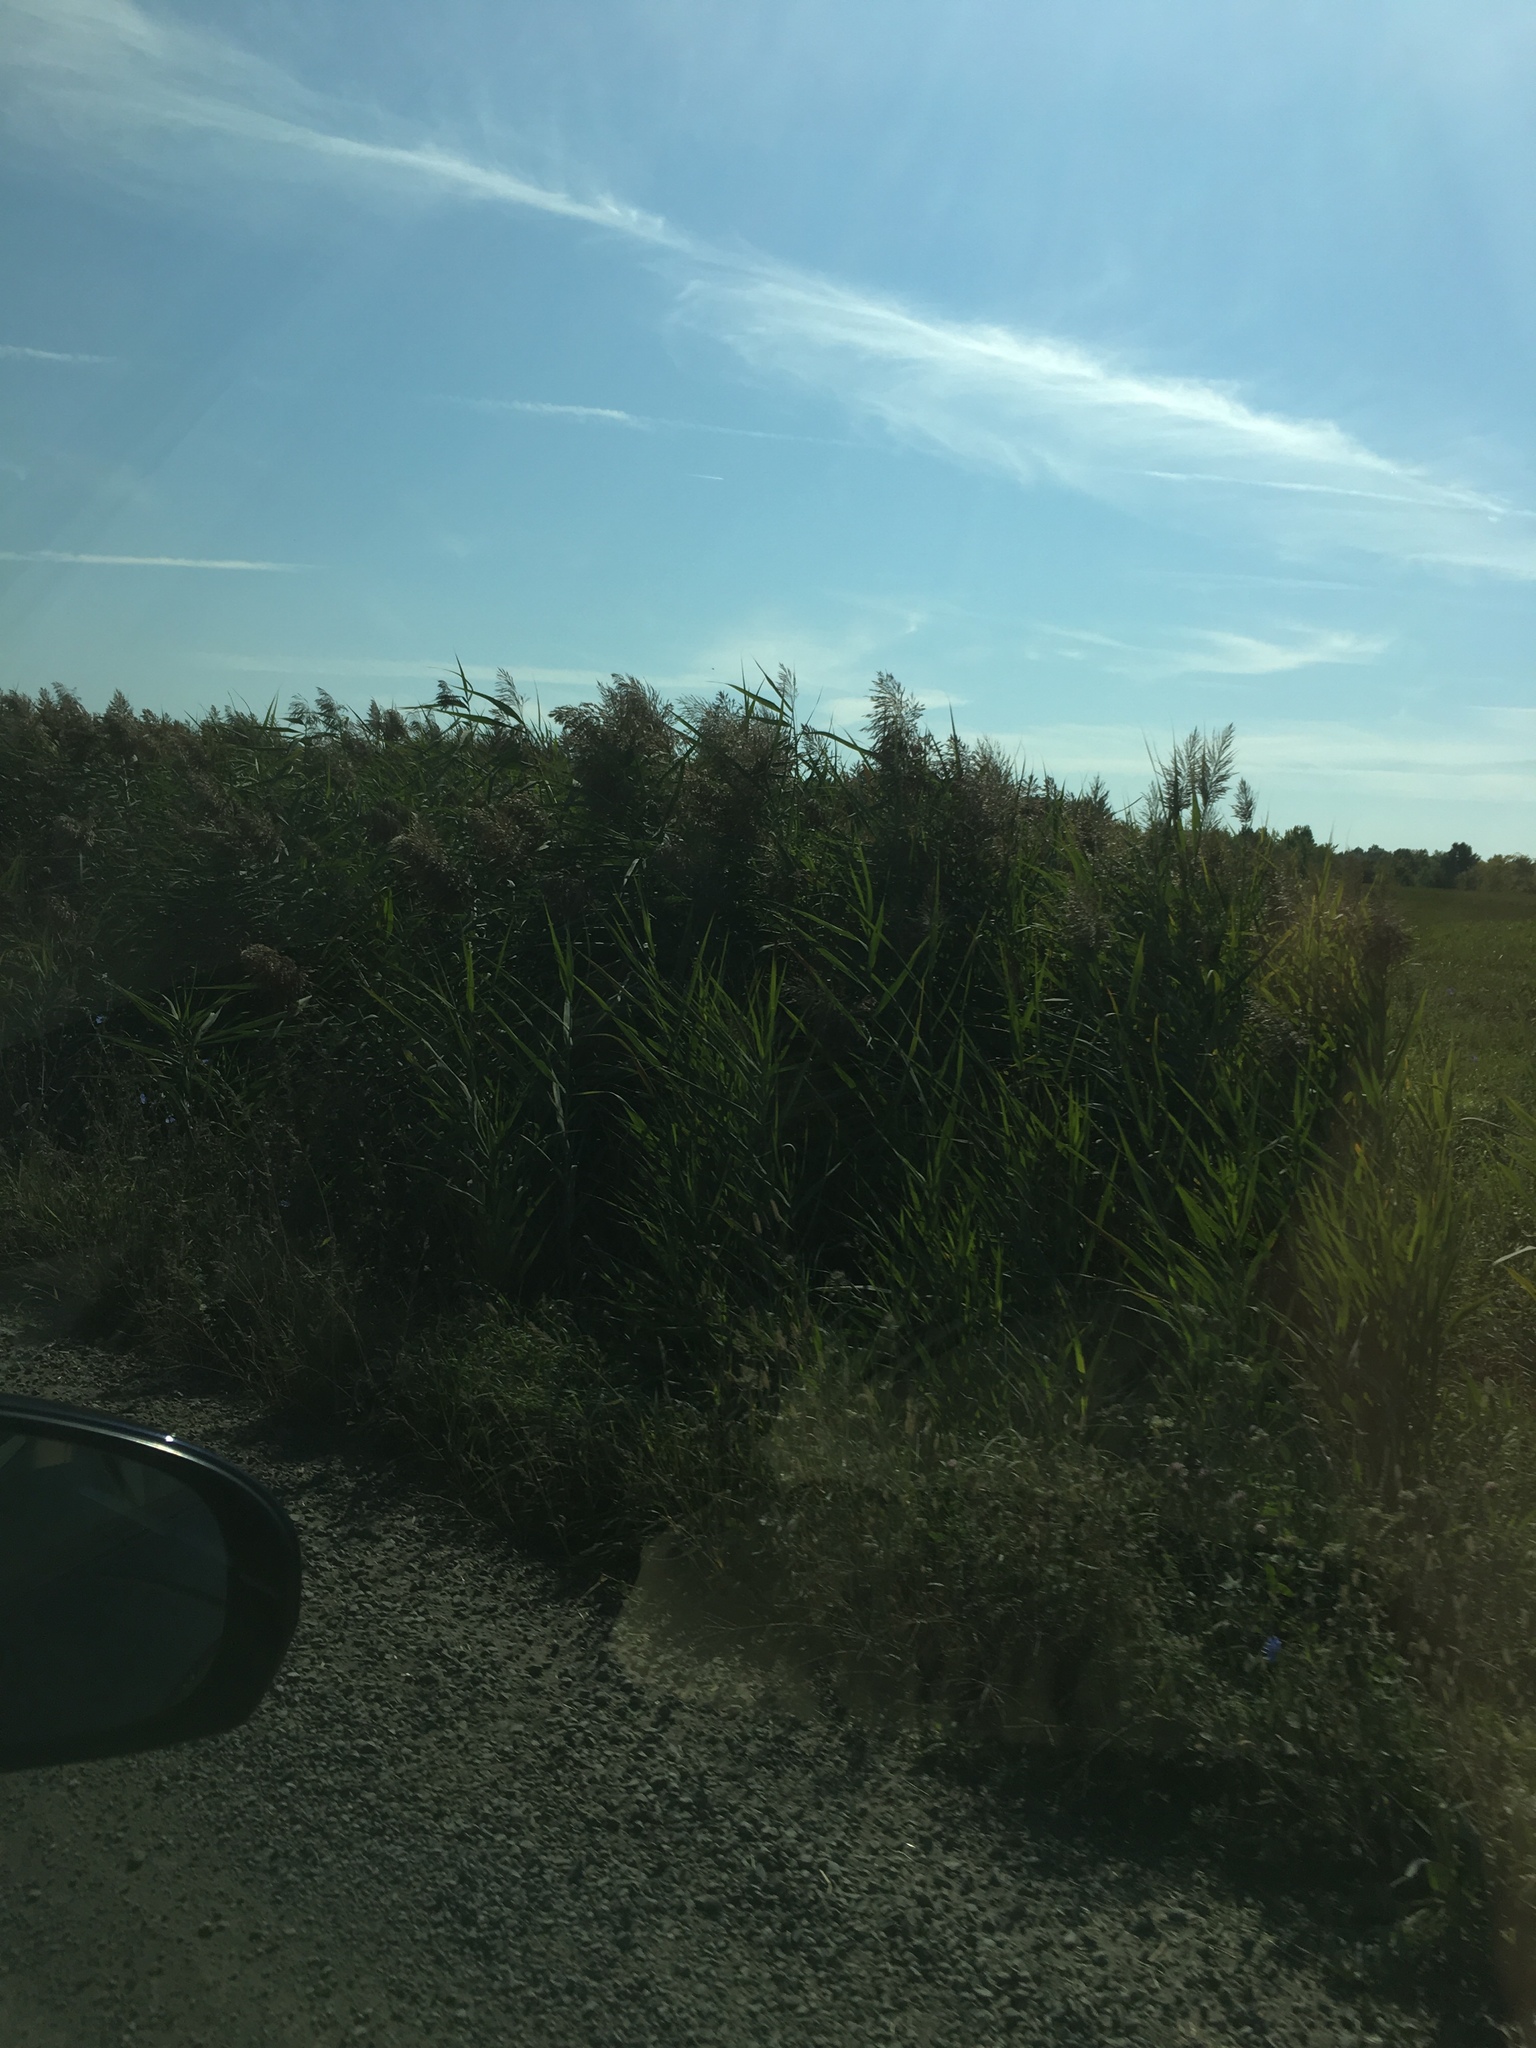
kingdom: Plantae
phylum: Tracheophyta
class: Liliopsida
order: Poales
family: Poaceae
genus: Phragmites
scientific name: Phragmites australis
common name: Common reed
